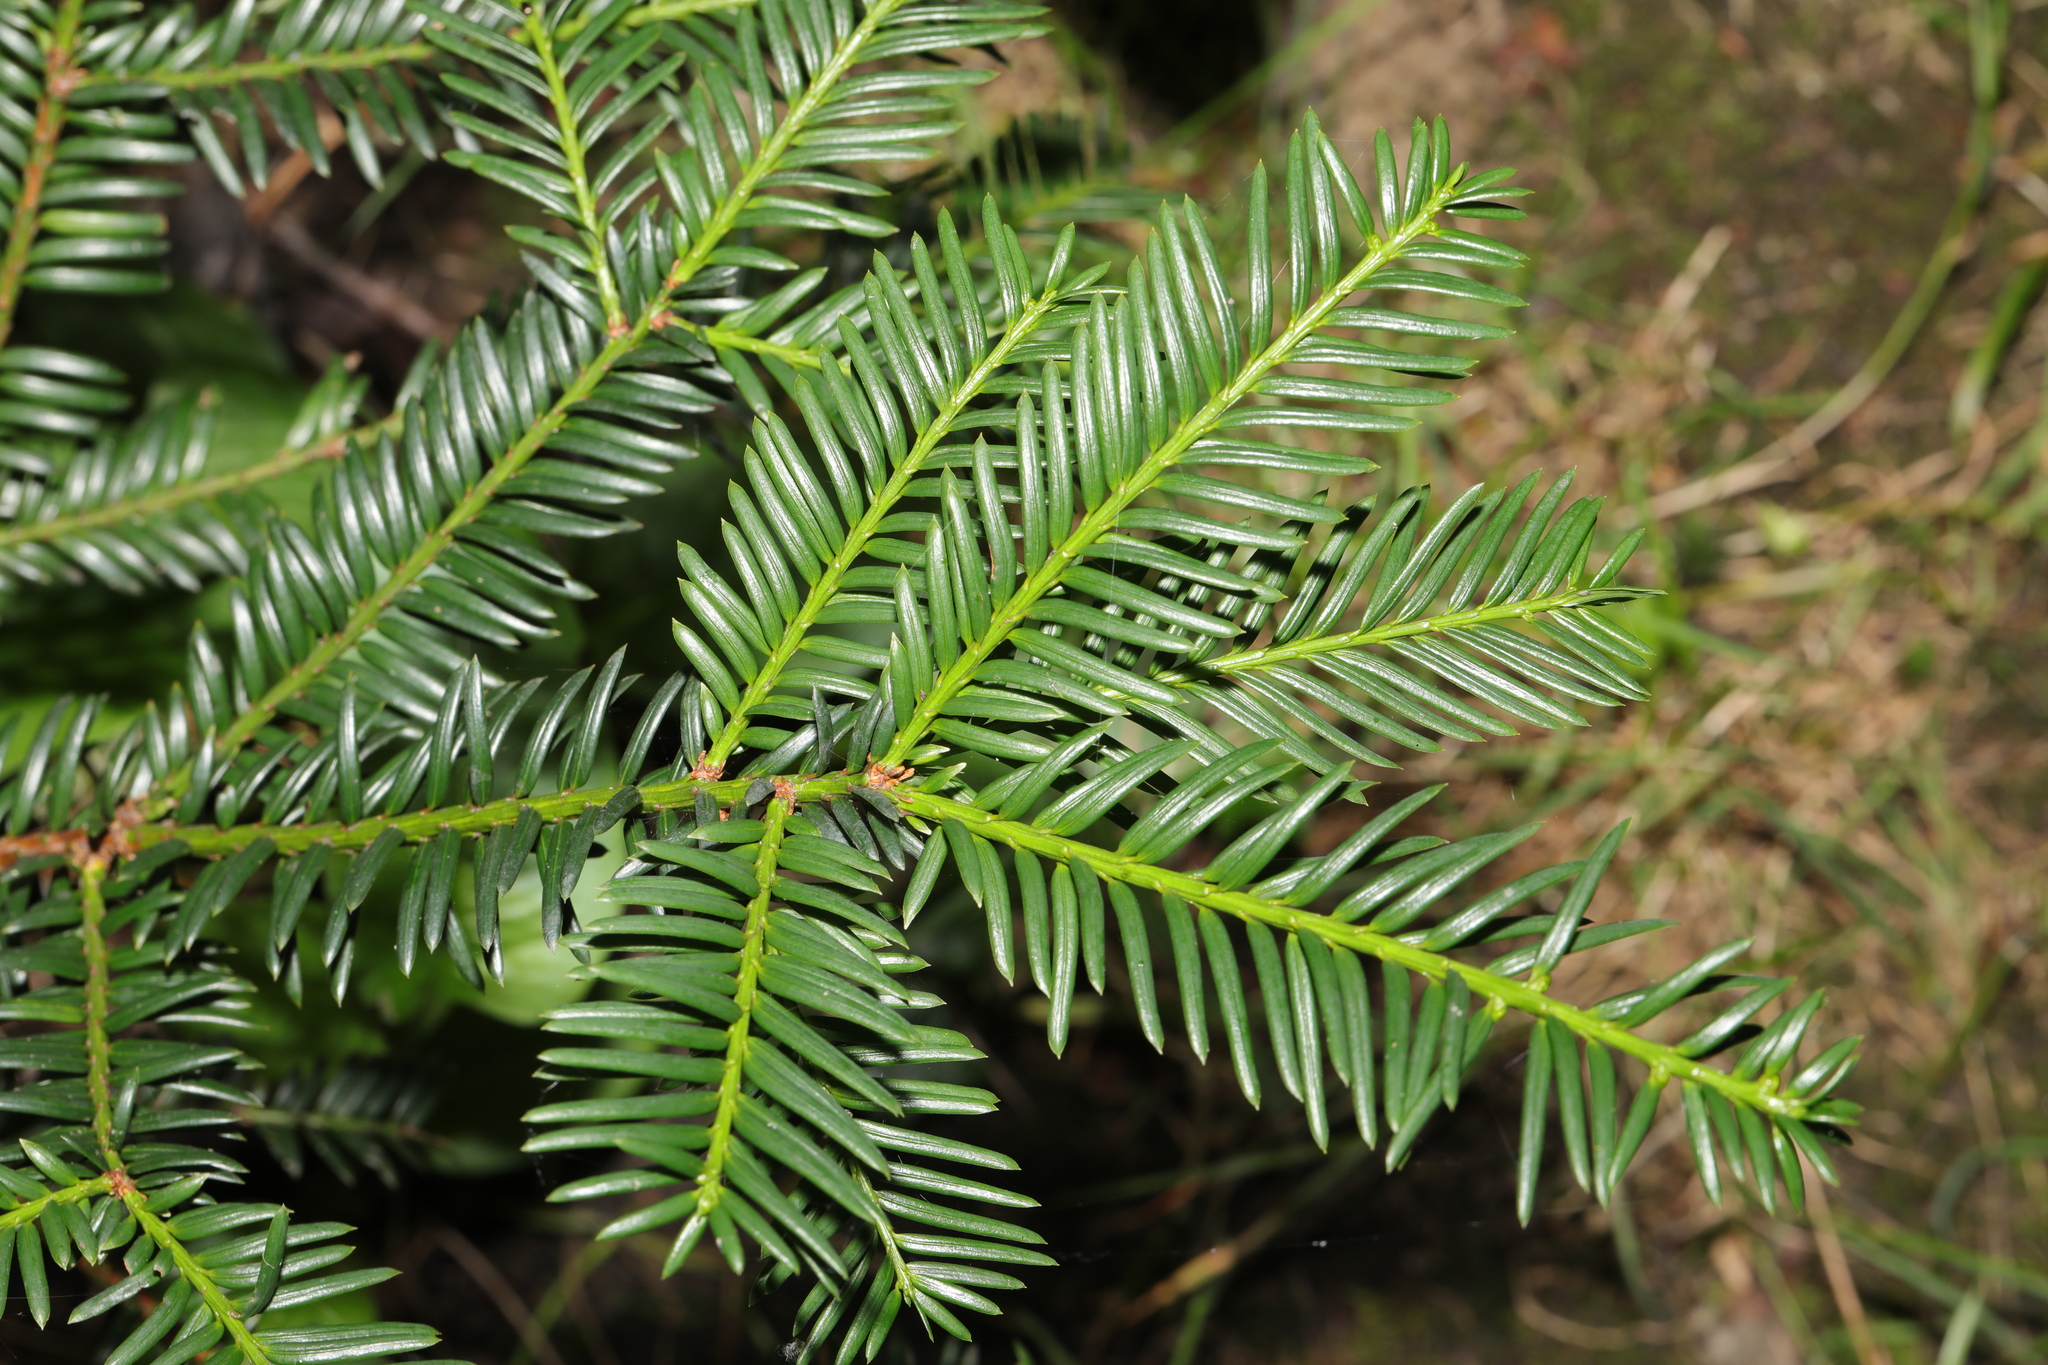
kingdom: Plantae
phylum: Tracheophyta
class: Pinopsida
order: Pinales
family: Taxaceae
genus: Taxus
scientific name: Taxus baccata
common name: Yew
